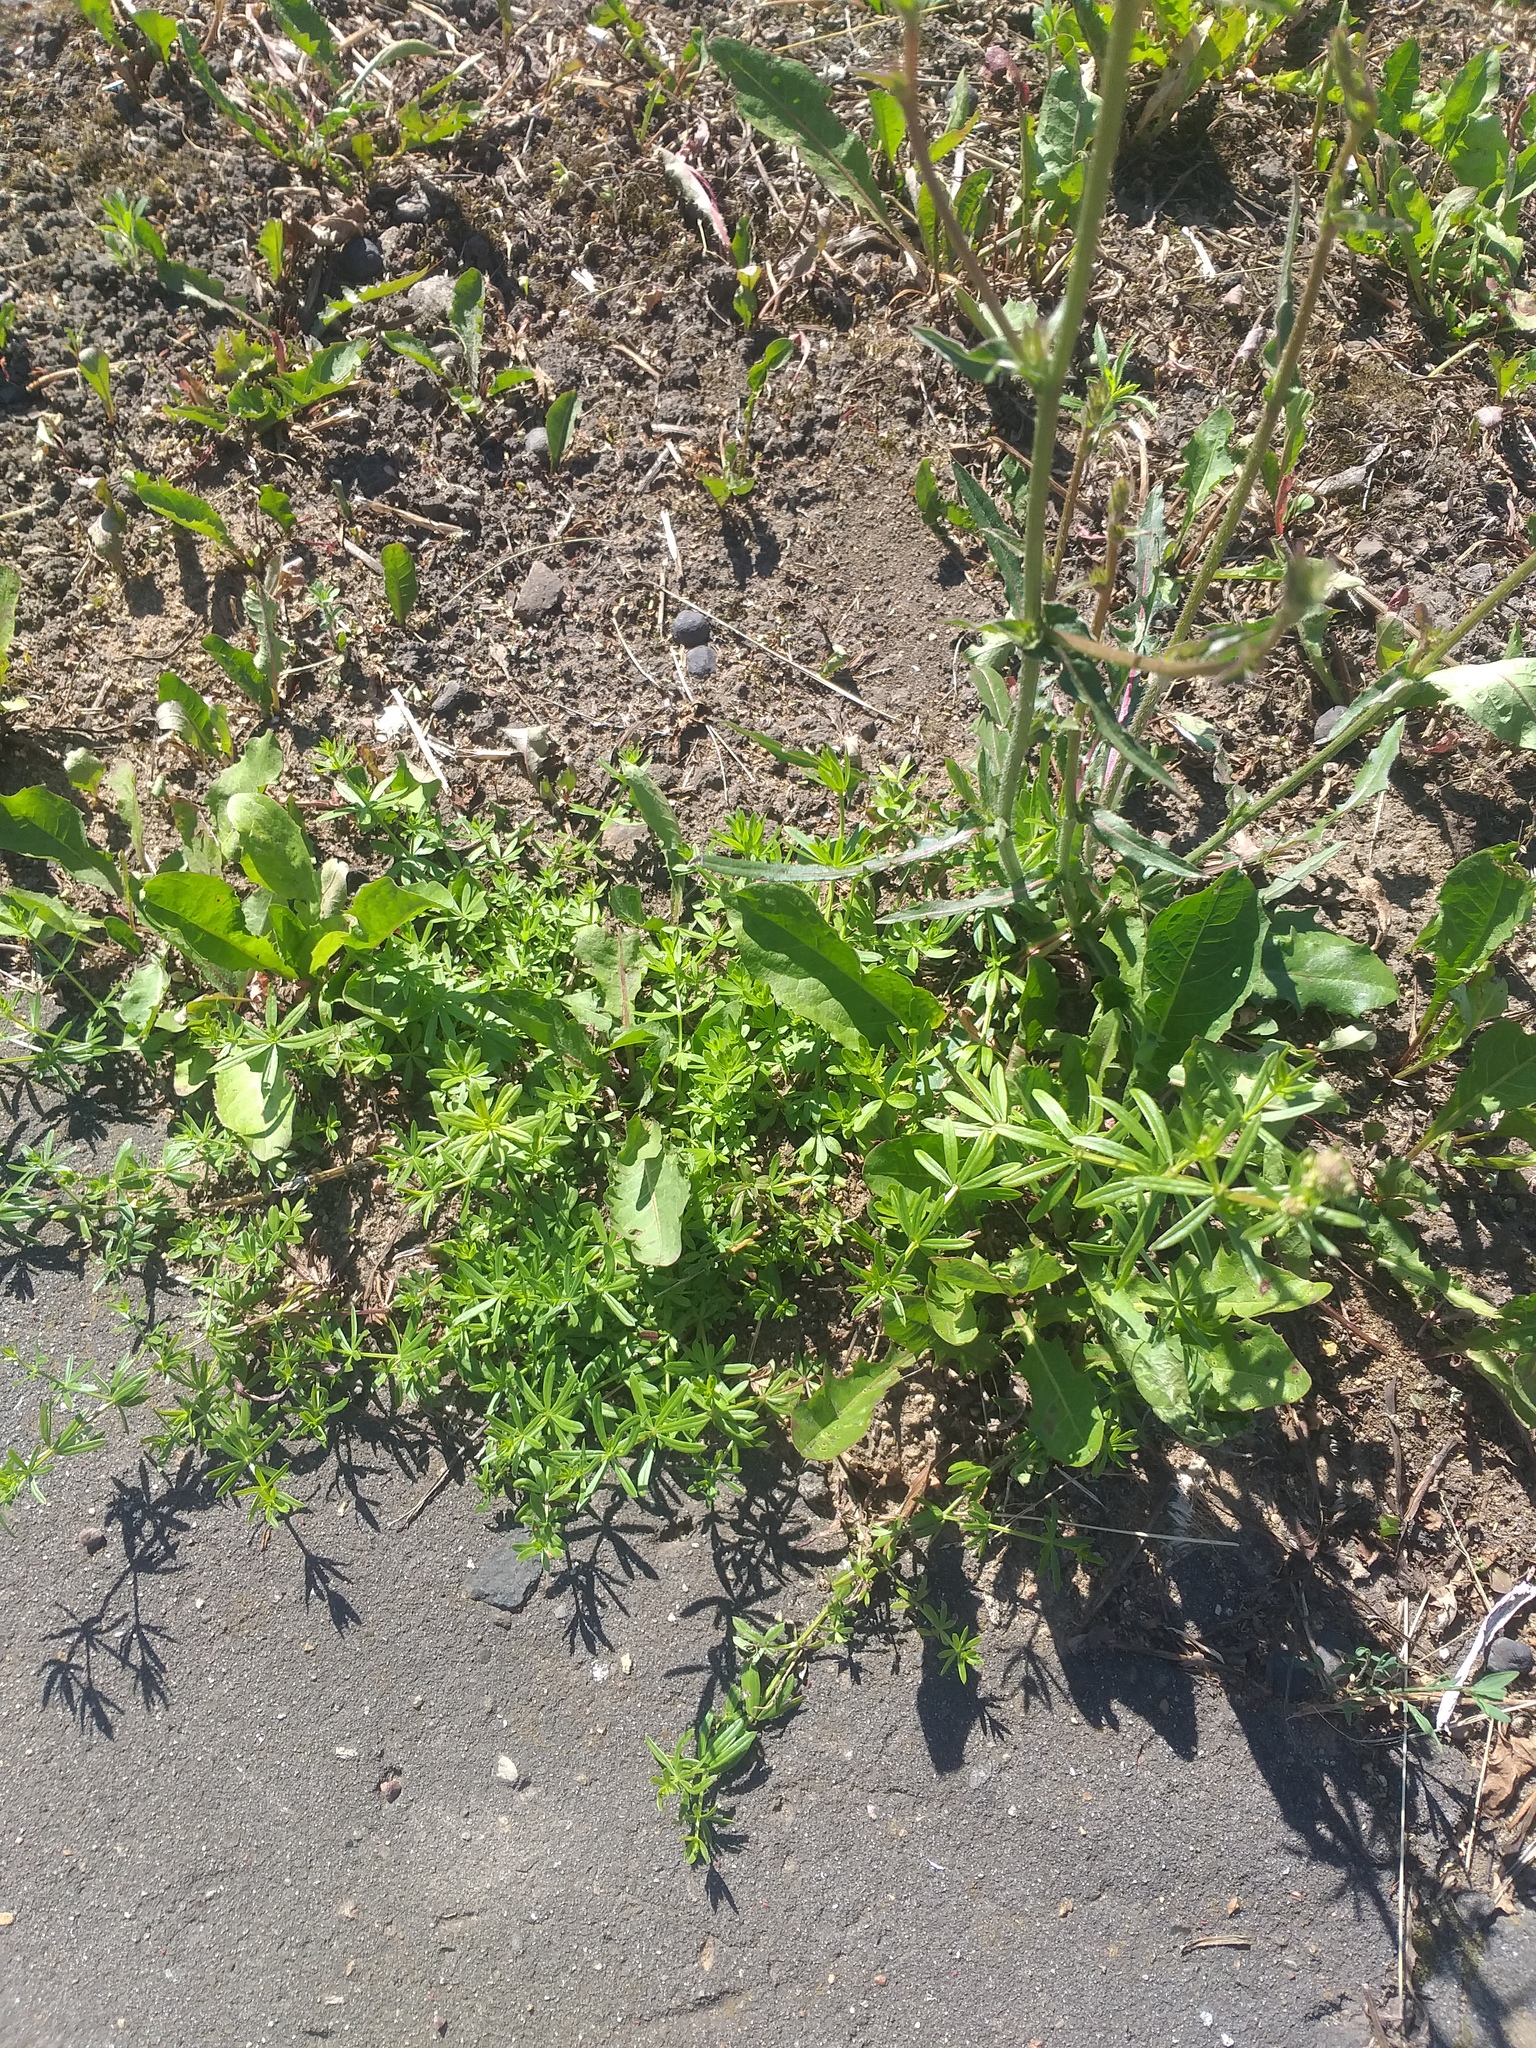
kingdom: Plantae
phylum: Tracheophyta
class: Magnoliopsida
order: Gentianales
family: Rubiaceae
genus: Galium
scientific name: Galium mollugo
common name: Hedge bedstraw
